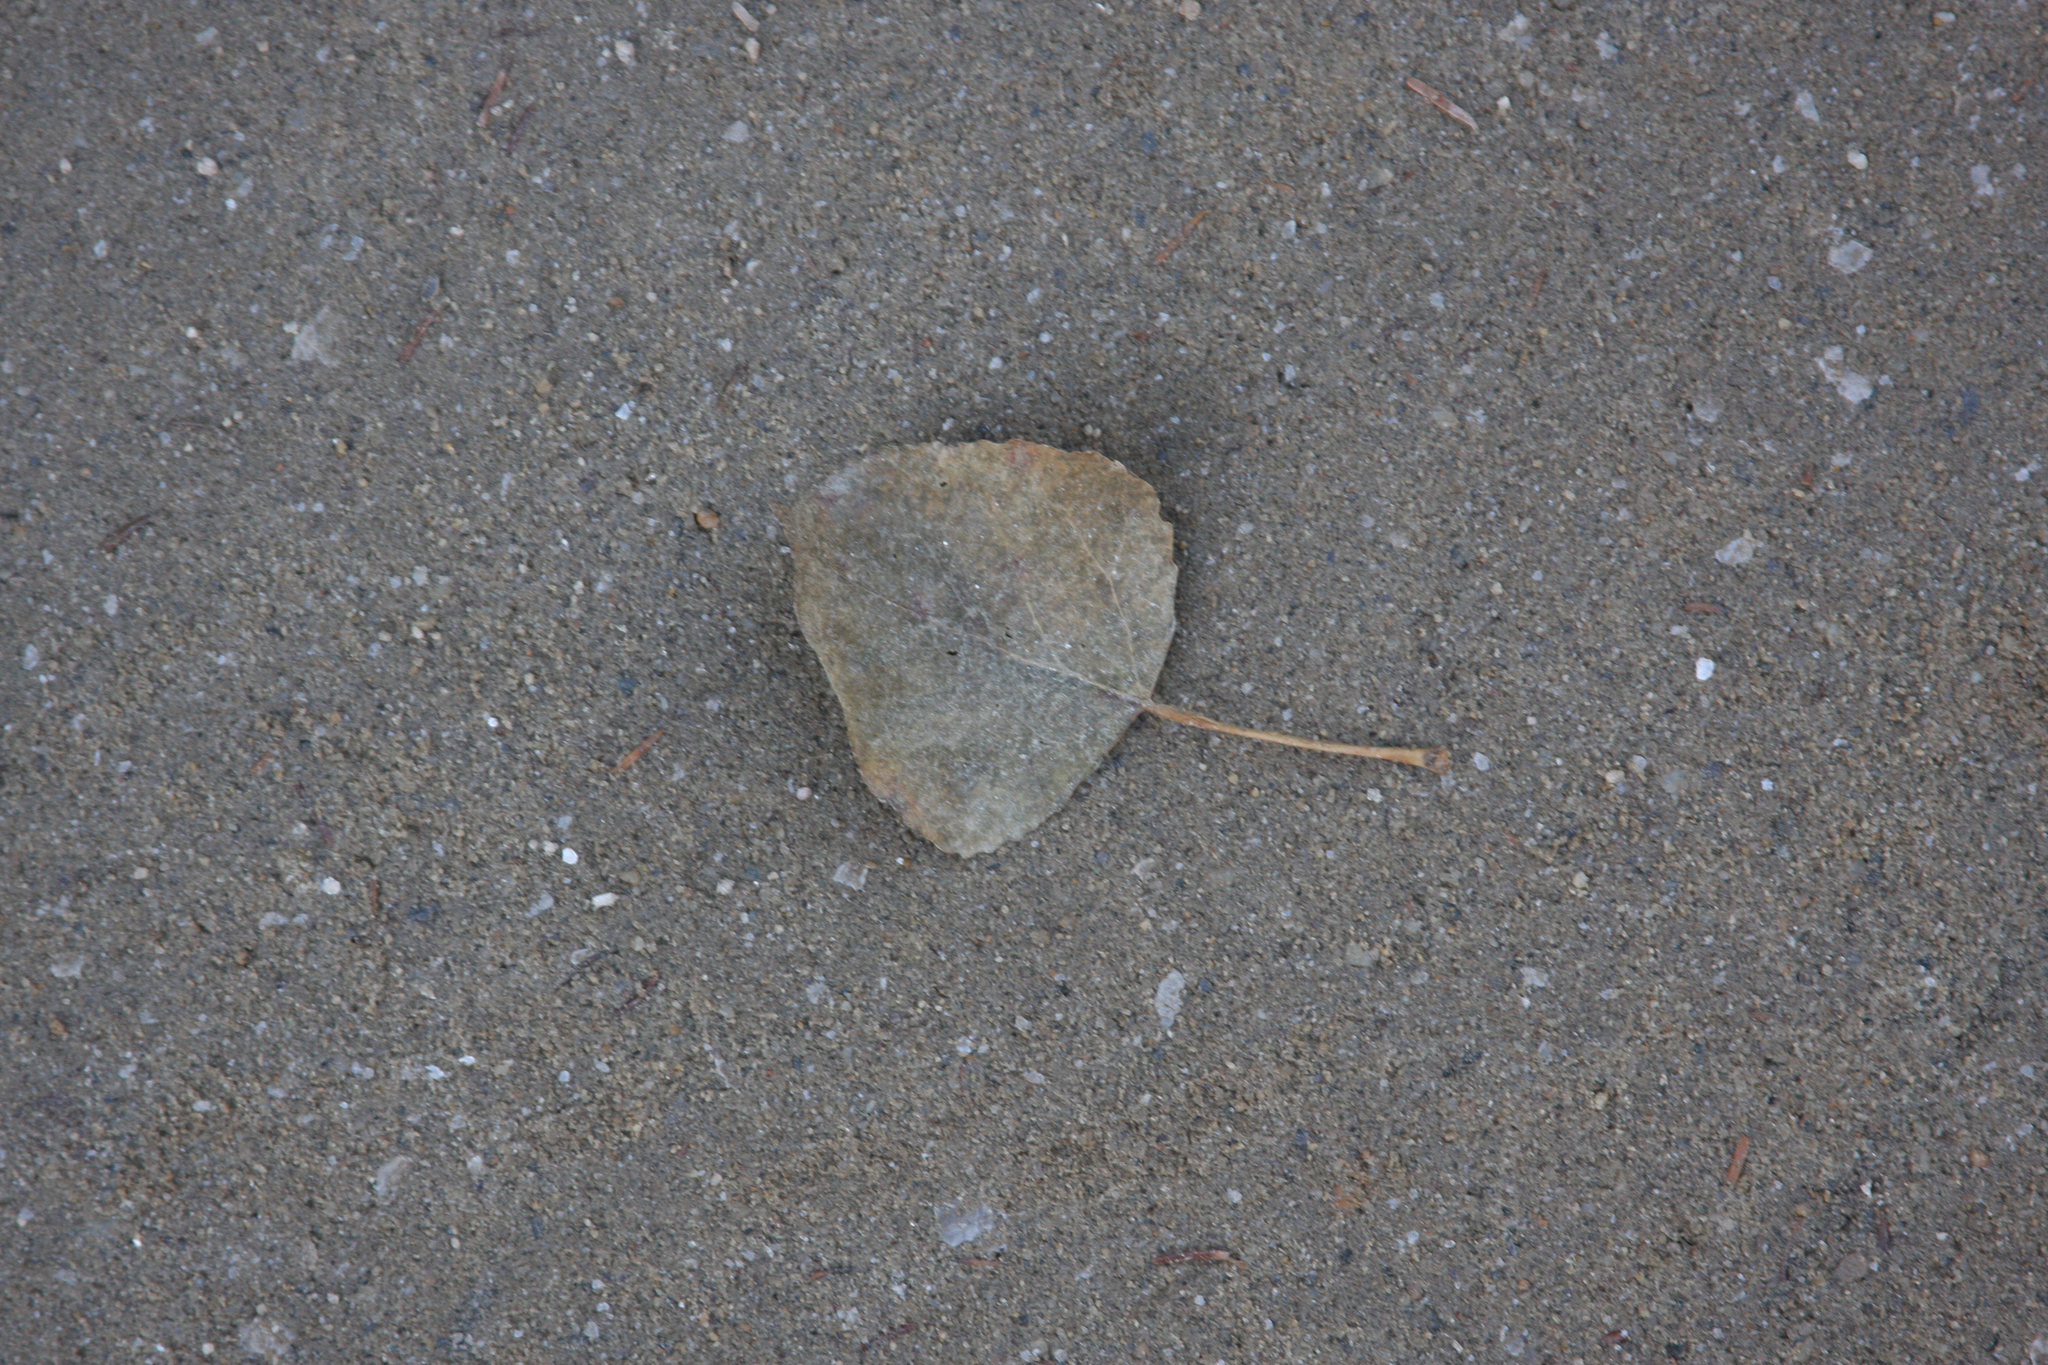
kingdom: Plantae
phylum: Tracheophyta
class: Magnoliopsida
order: Malpighiales
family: Salicaceae
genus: Populus
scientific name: Populus tremuloides
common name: Quaking aspen
